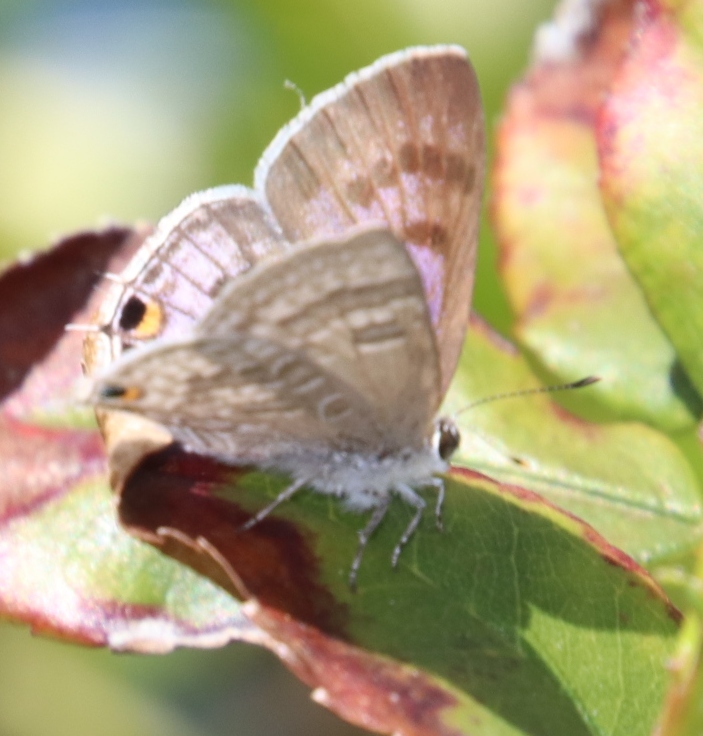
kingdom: Animalia
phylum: Arthropoda
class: Insecta
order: Lepidoptera
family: Lycaenidae
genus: Leptotes
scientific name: Leptotes
